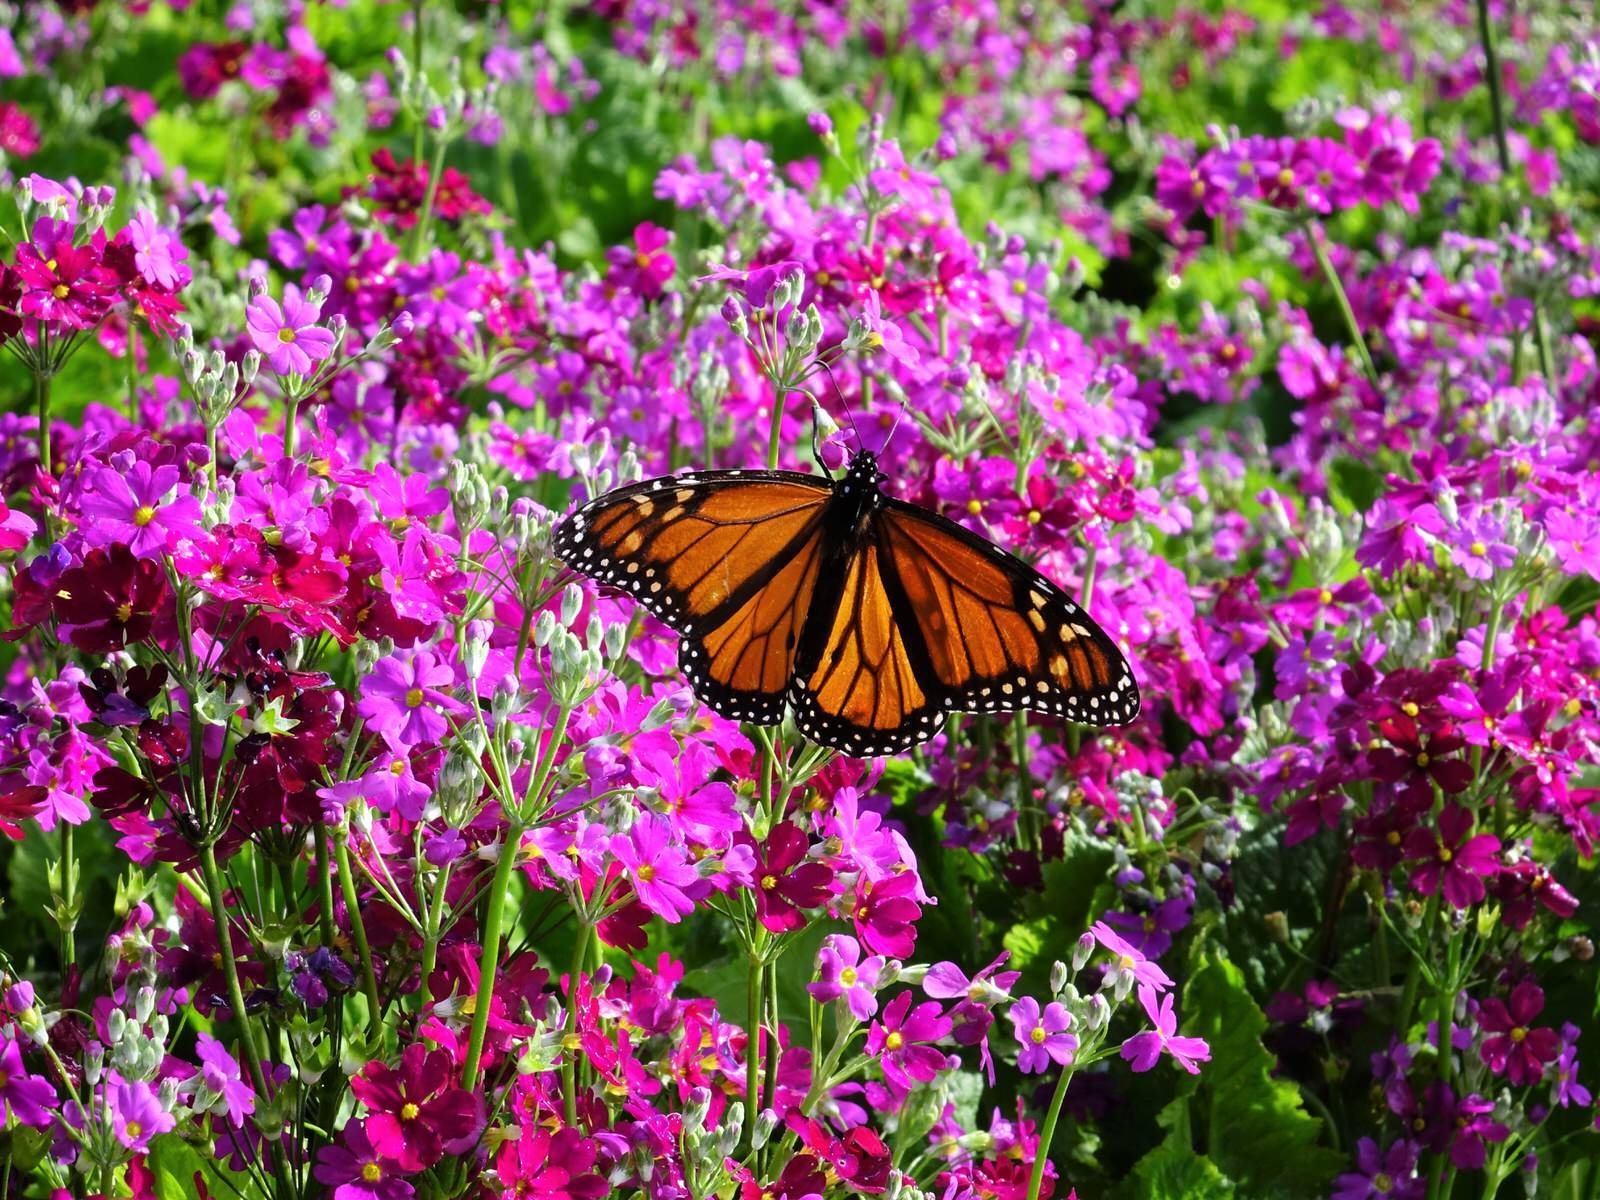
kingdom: Animalia
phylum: Arthropoda
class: Insecta
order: Lepidoptera
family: Nymphalidae
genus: Danaus
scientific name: Danaus plexippus
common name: Monarch
